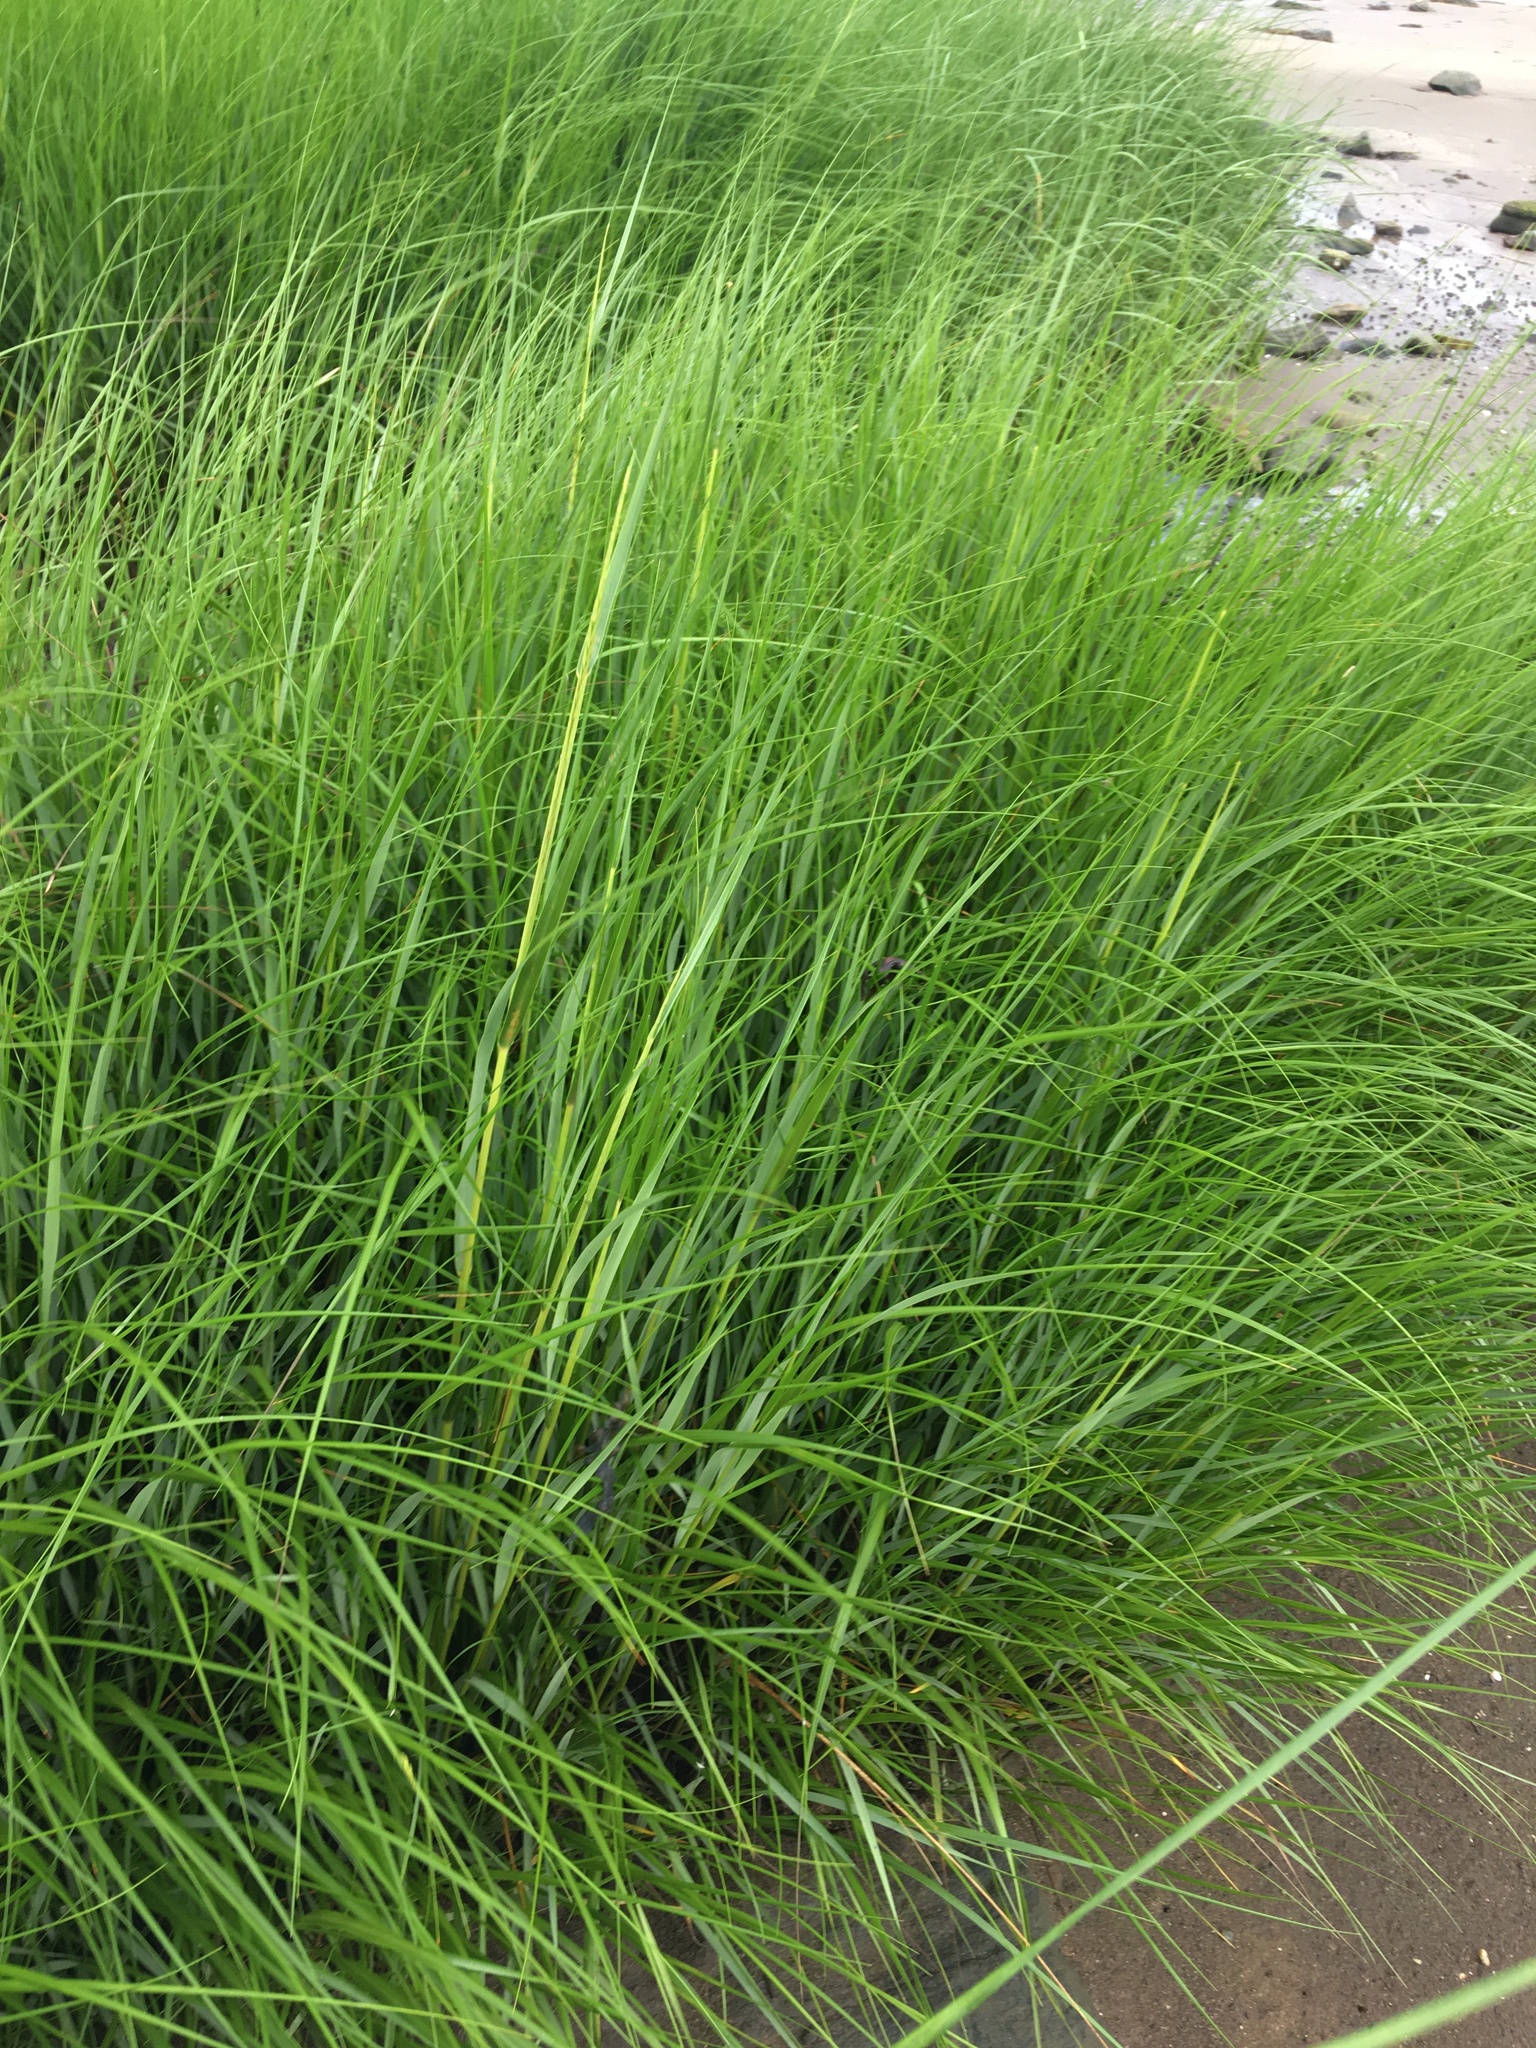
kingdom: Plantae
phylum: Tracheophyta
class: Liliopsida
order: Poales
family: Poaceae
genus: Sporobolus
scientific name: Sporobolus alterniflorus
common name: Atlantic cordgrass
